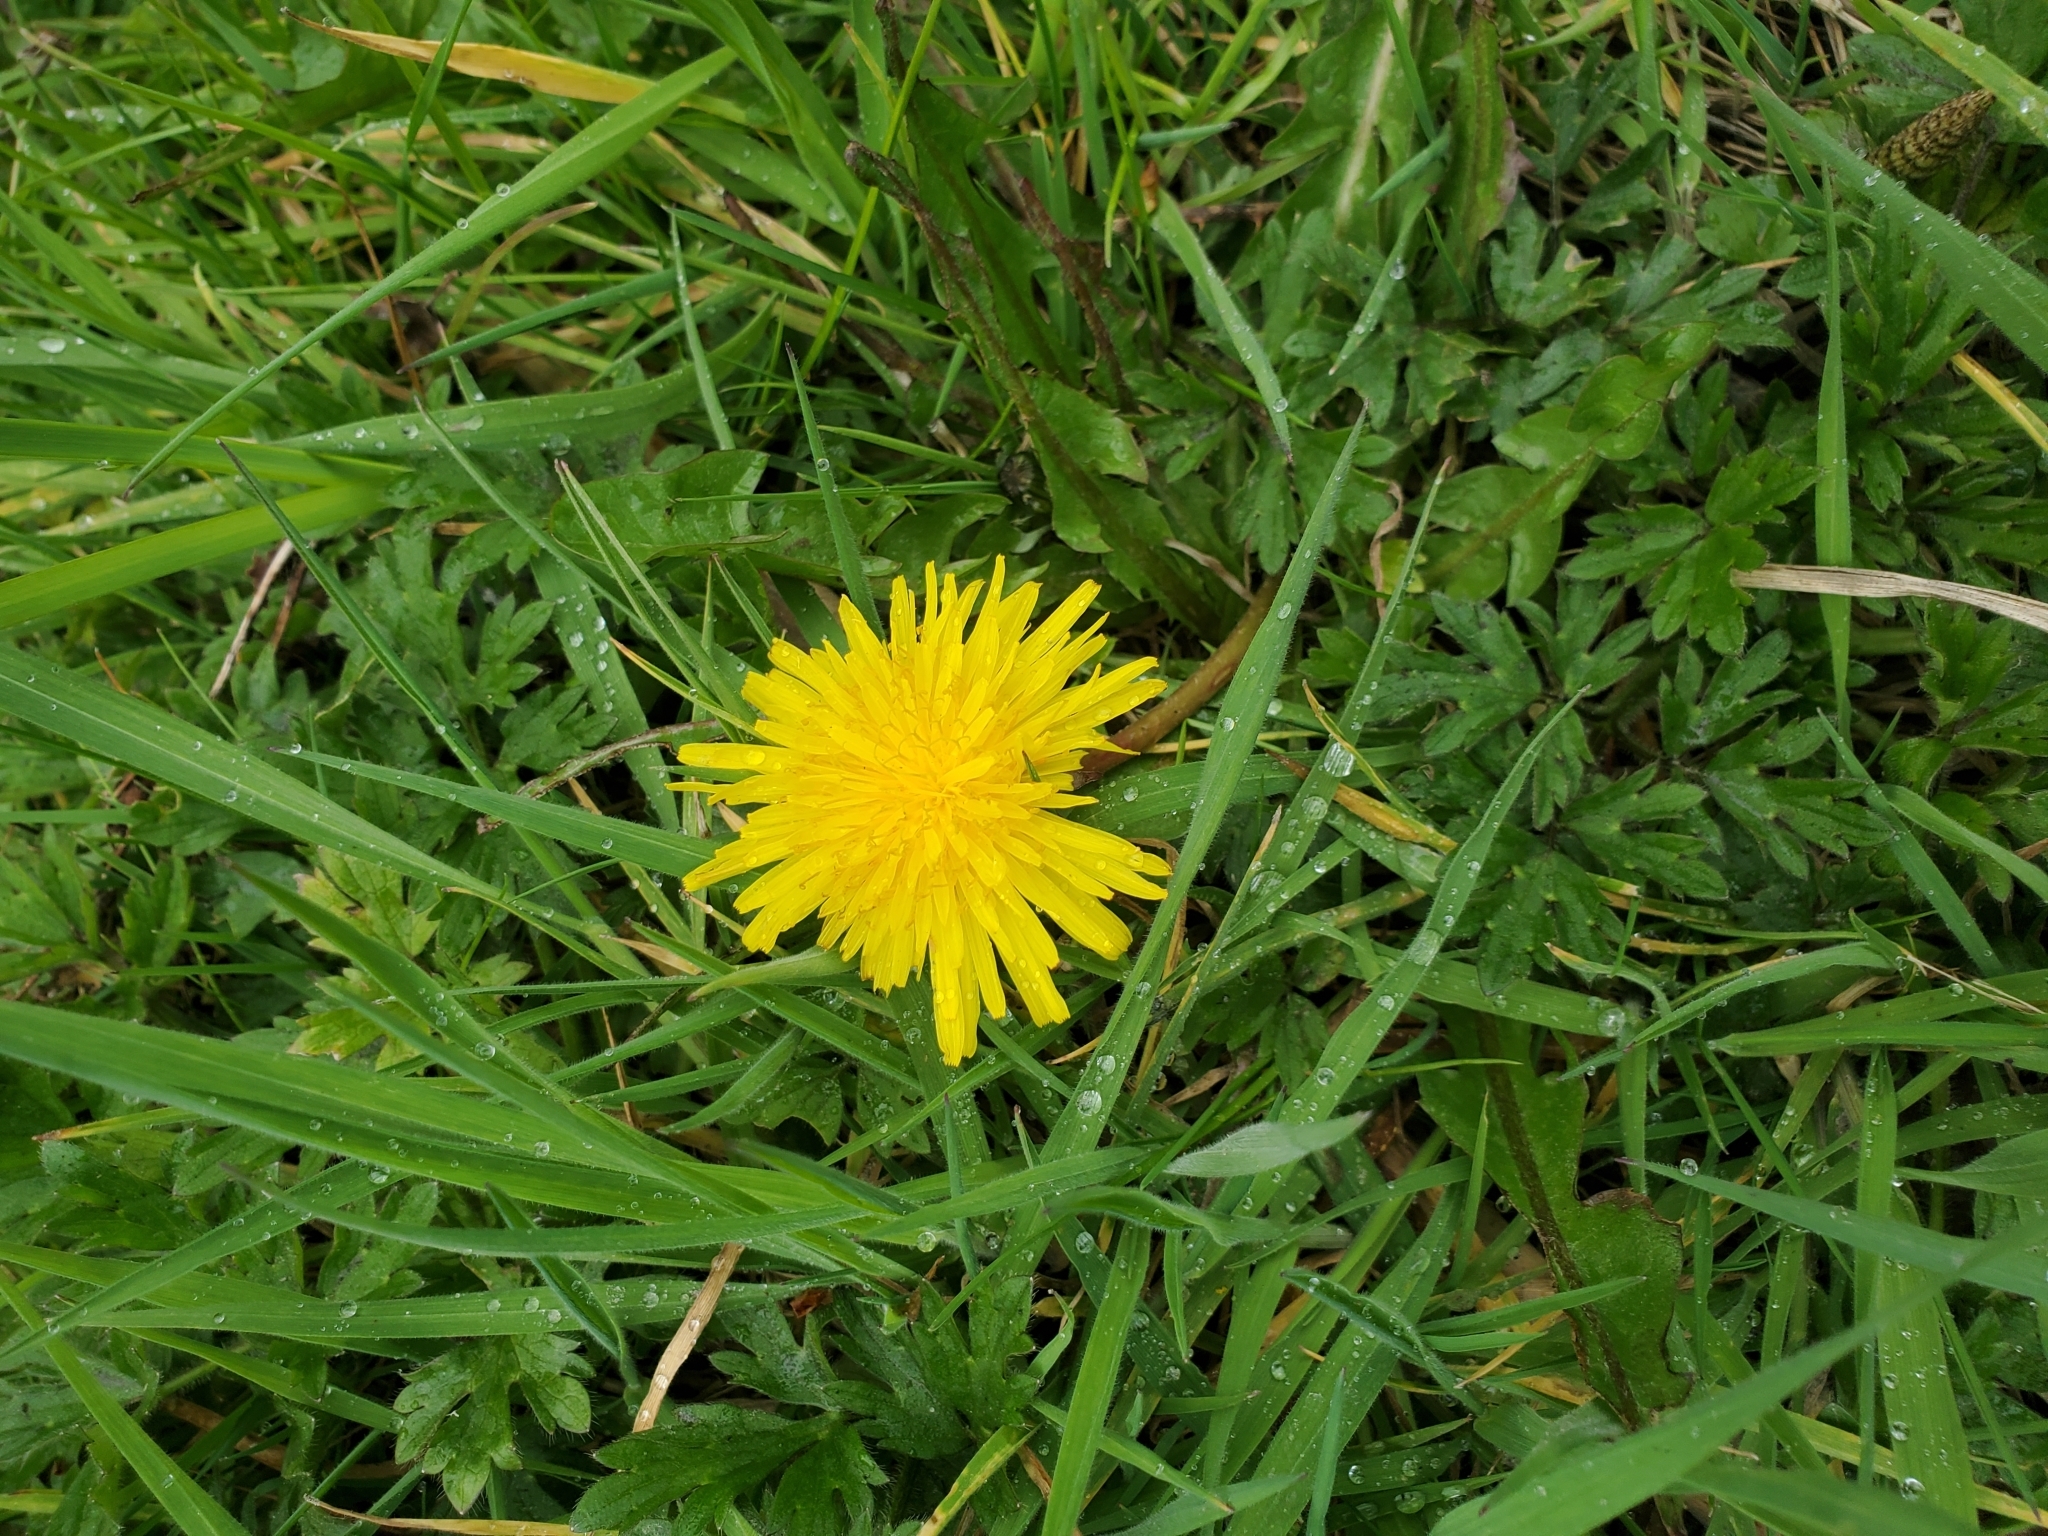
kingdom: Plantae
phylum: Tracheophyta
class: Magnoliopsida
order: Asterales
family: Asteraceae
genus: Taraxacum
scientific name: Taraxacum officinale
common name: Common dandelion
